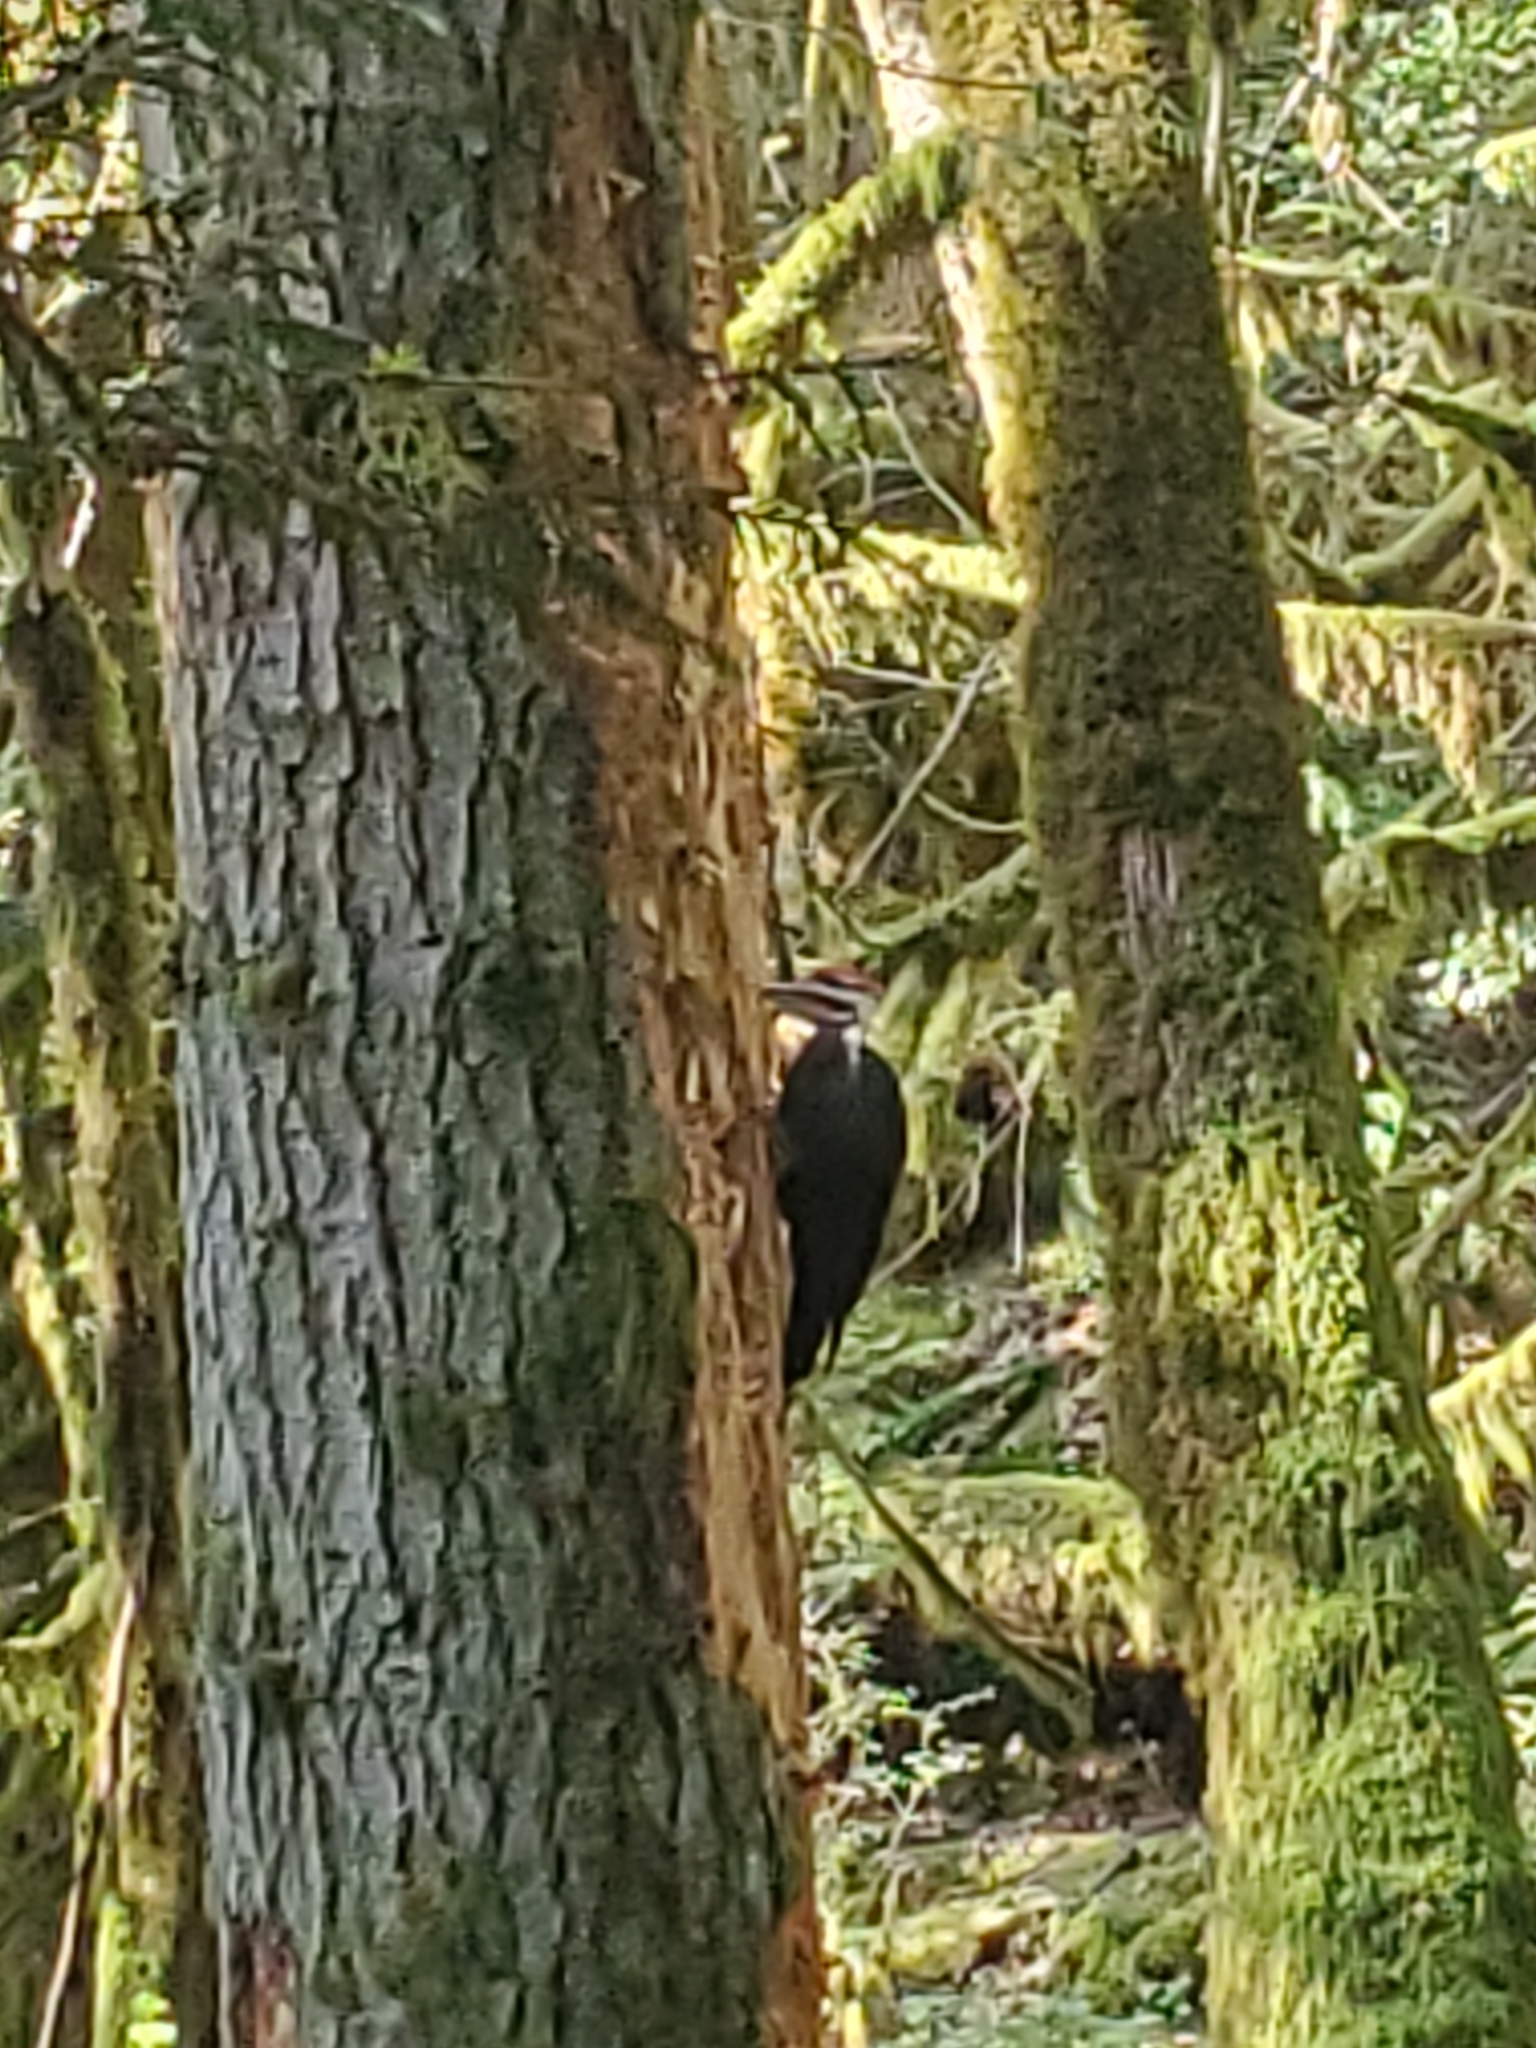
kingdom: Animalia
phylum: Chordata
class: Aves
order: Piciformes
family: Picidae
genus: Dryocopus
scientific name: Dryocopus pileatus
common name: Pileated woodpecker
